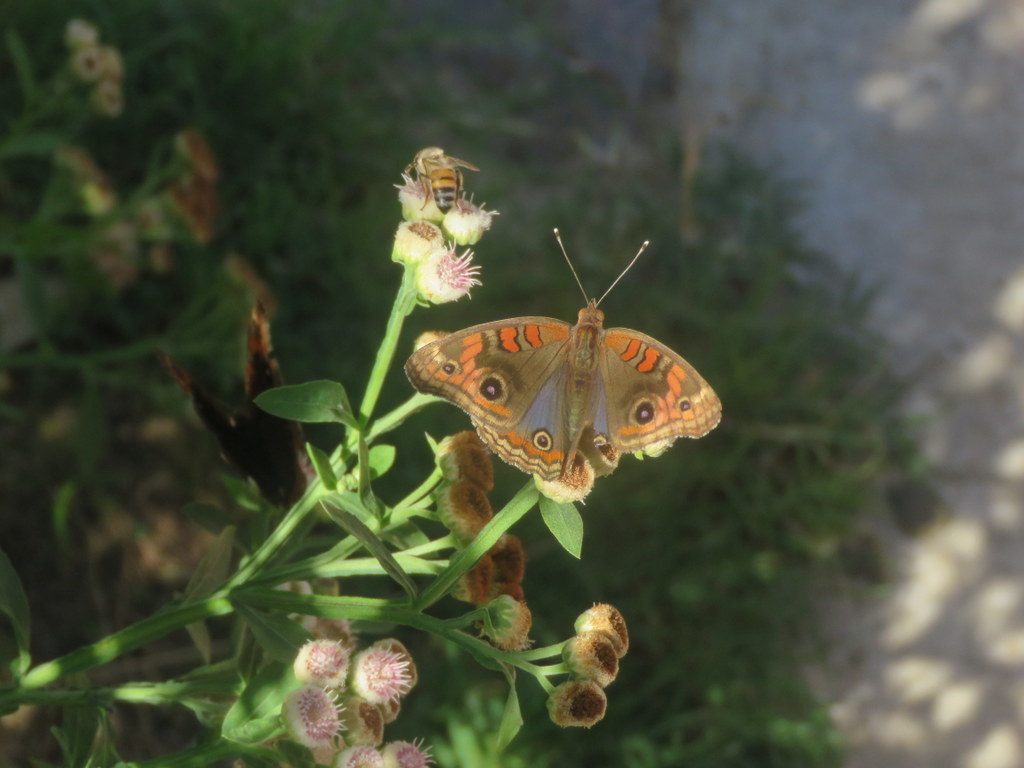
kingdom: Animalia
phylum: Arthropoda
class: Insecta
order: Lepidoptera
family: Nymphalidae
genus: Junonia
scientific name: Junonia lavinia
